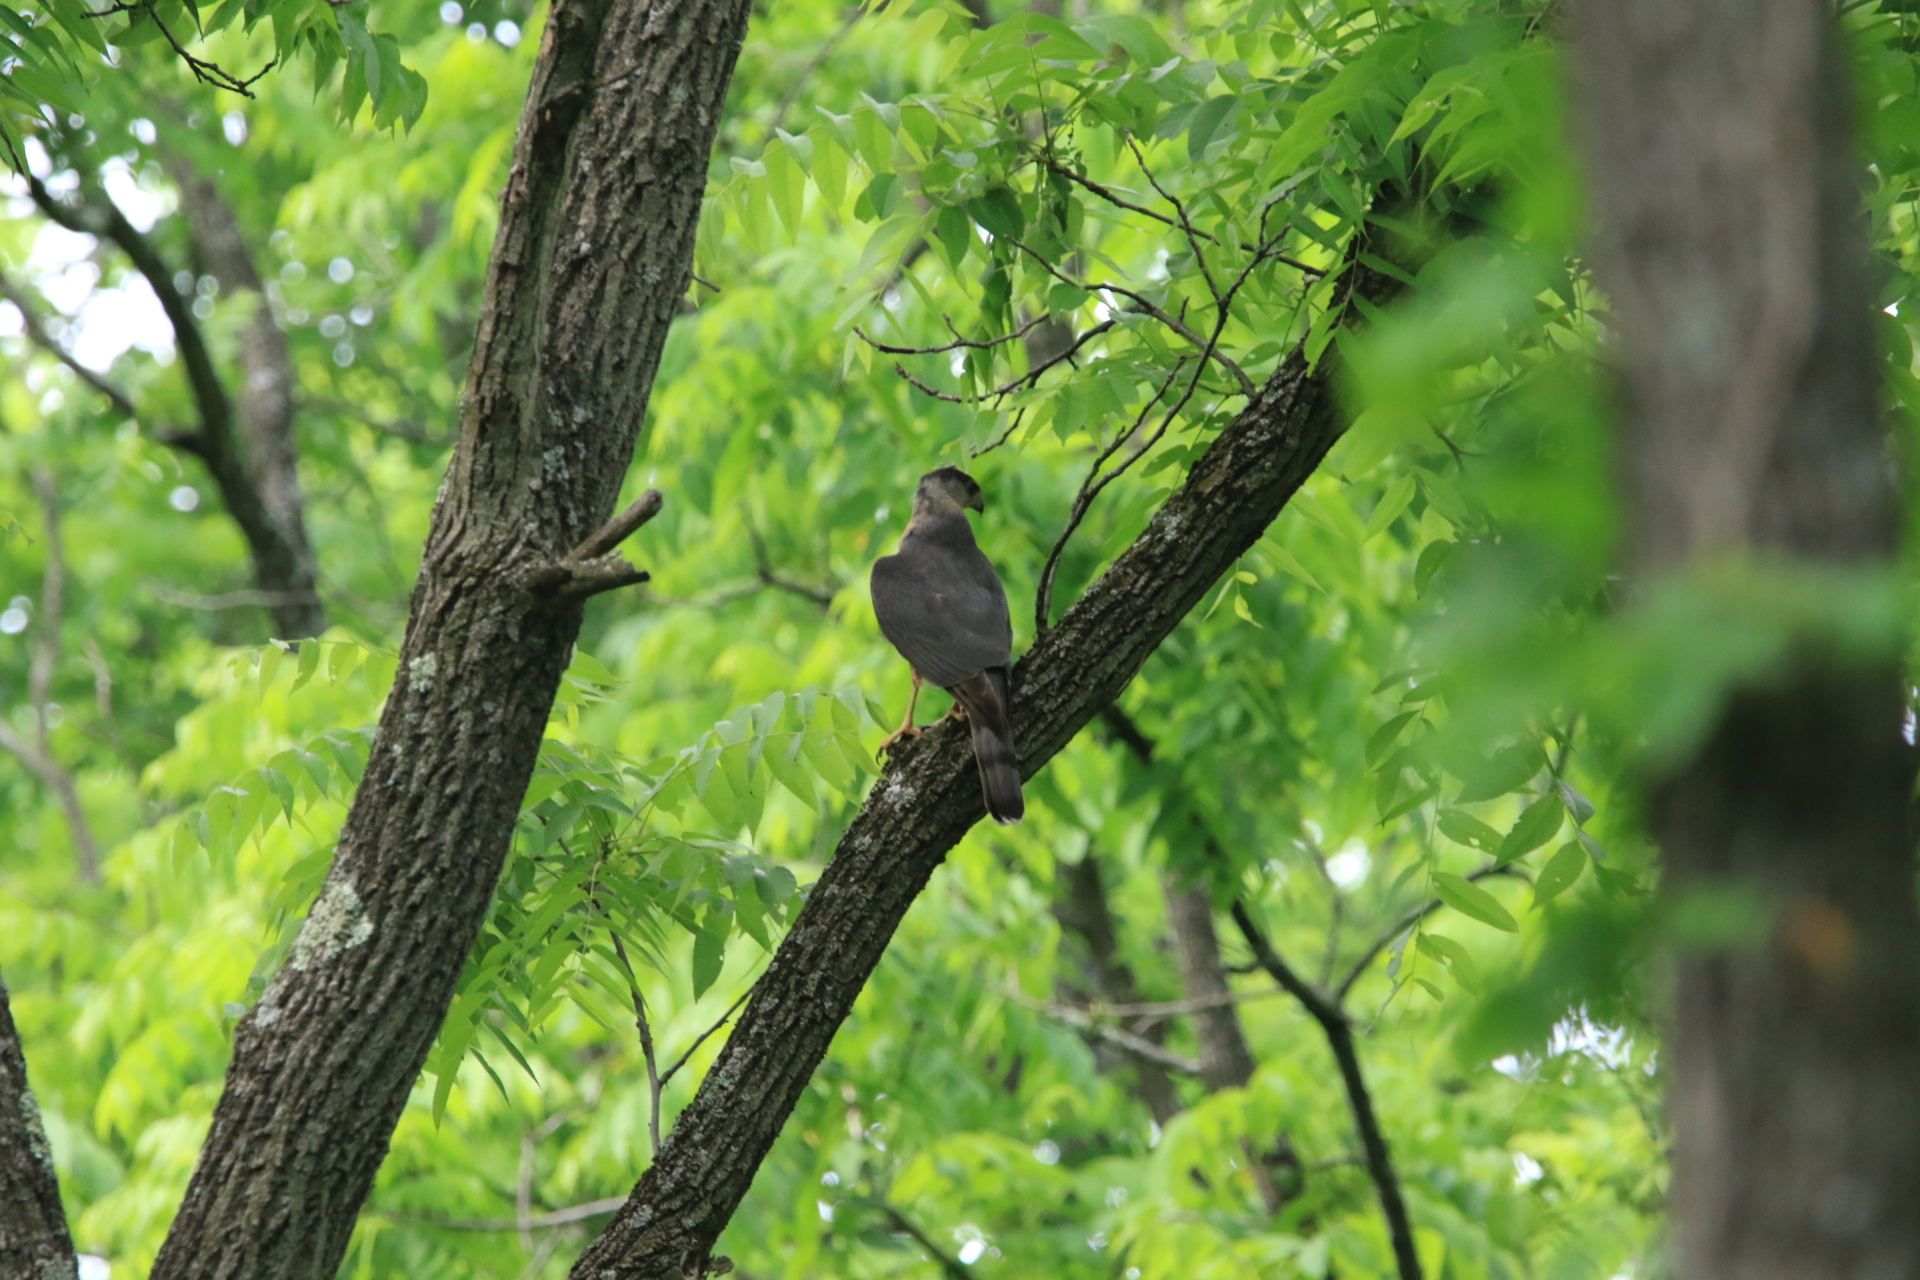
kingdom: Animalia
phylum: Chordata
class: Aves
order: Accipitriformes
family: Accipitridae
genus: Accipiter
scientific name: Accipiter cooperii
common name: Cooper's hawk
